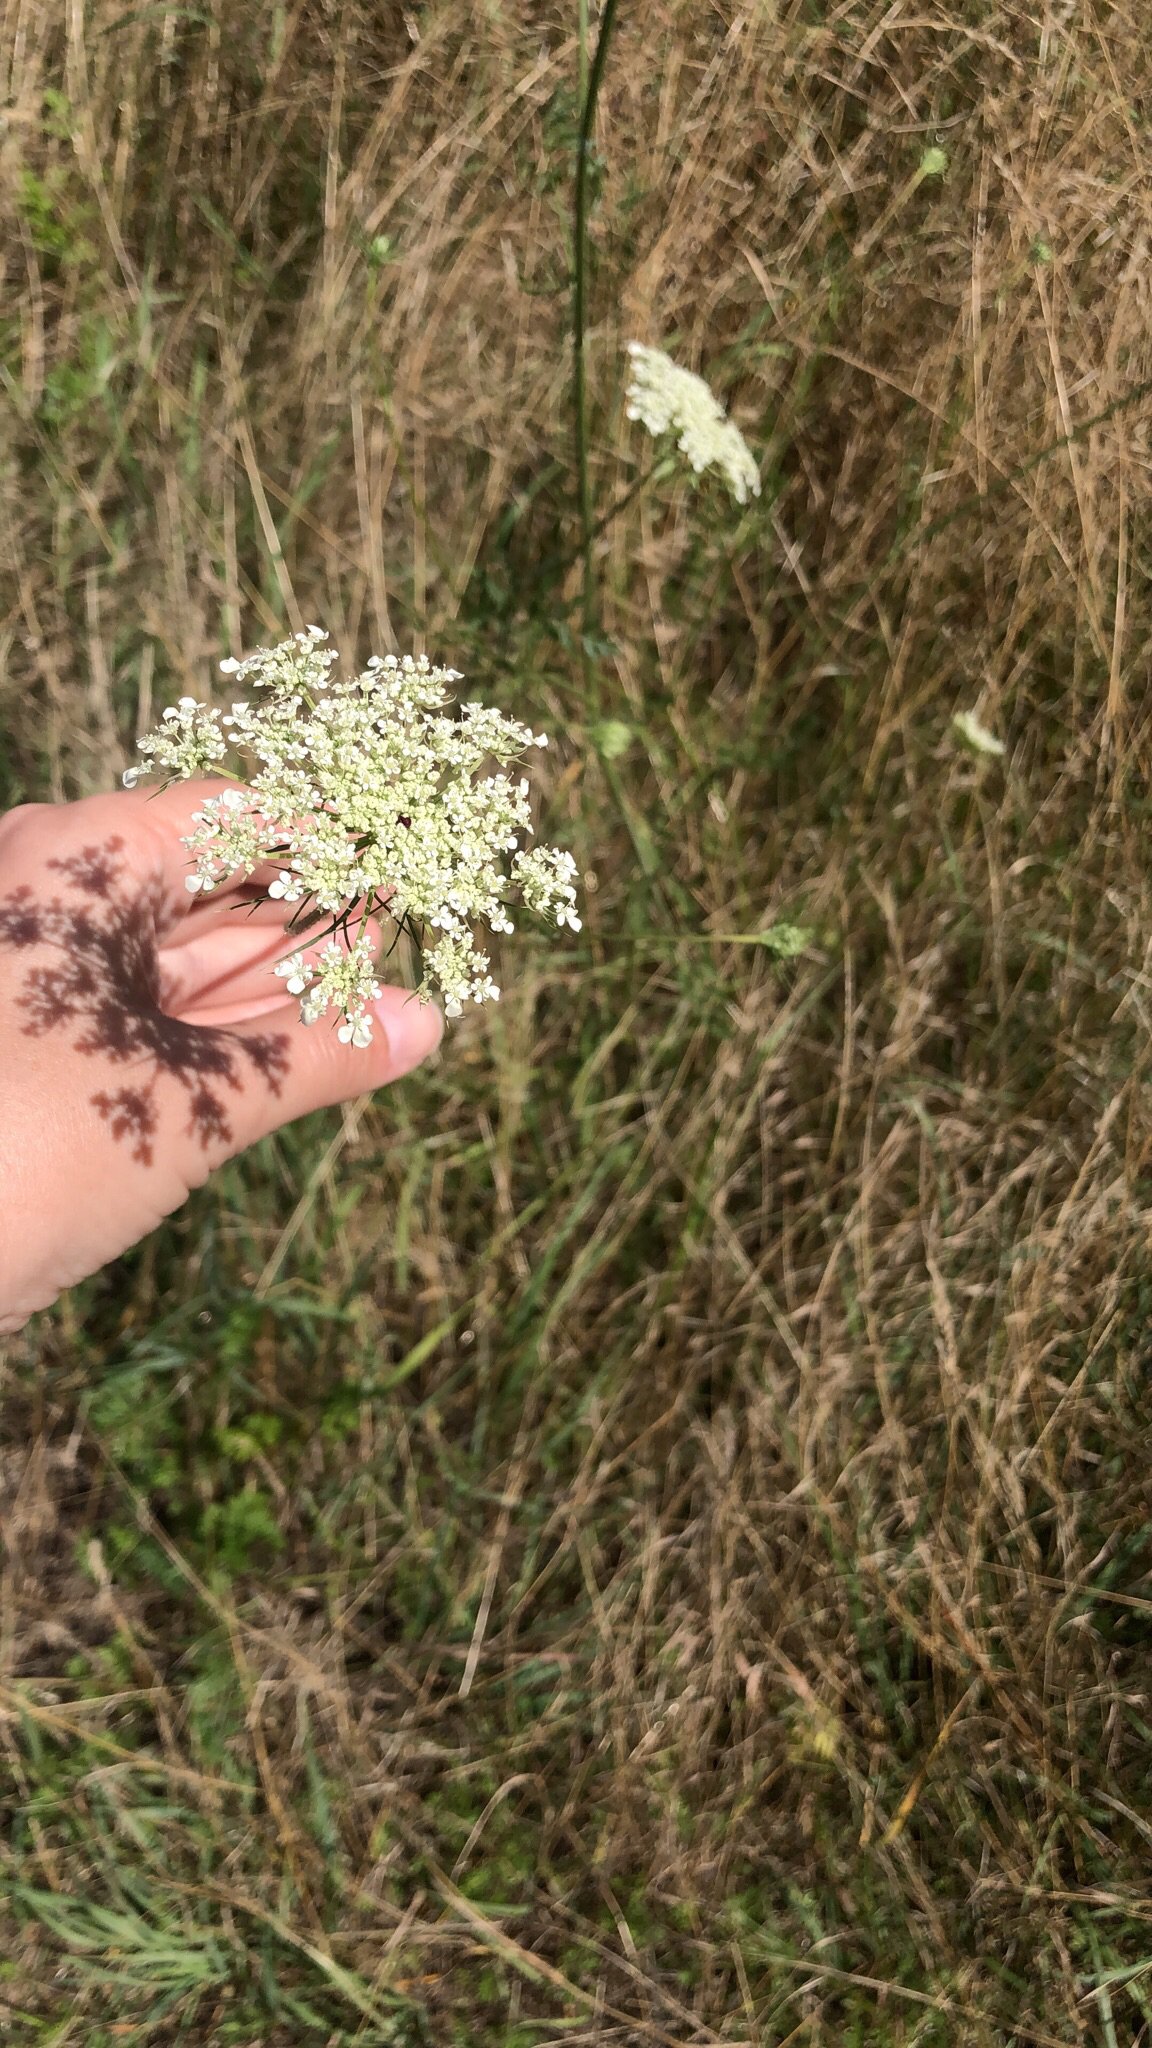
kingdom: Plantae
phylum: Tracheophyta
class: Magnoliopsida
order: Apiales
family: Apiaceae
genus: Daucus
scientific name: Daucus carota
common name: Wild carrot
